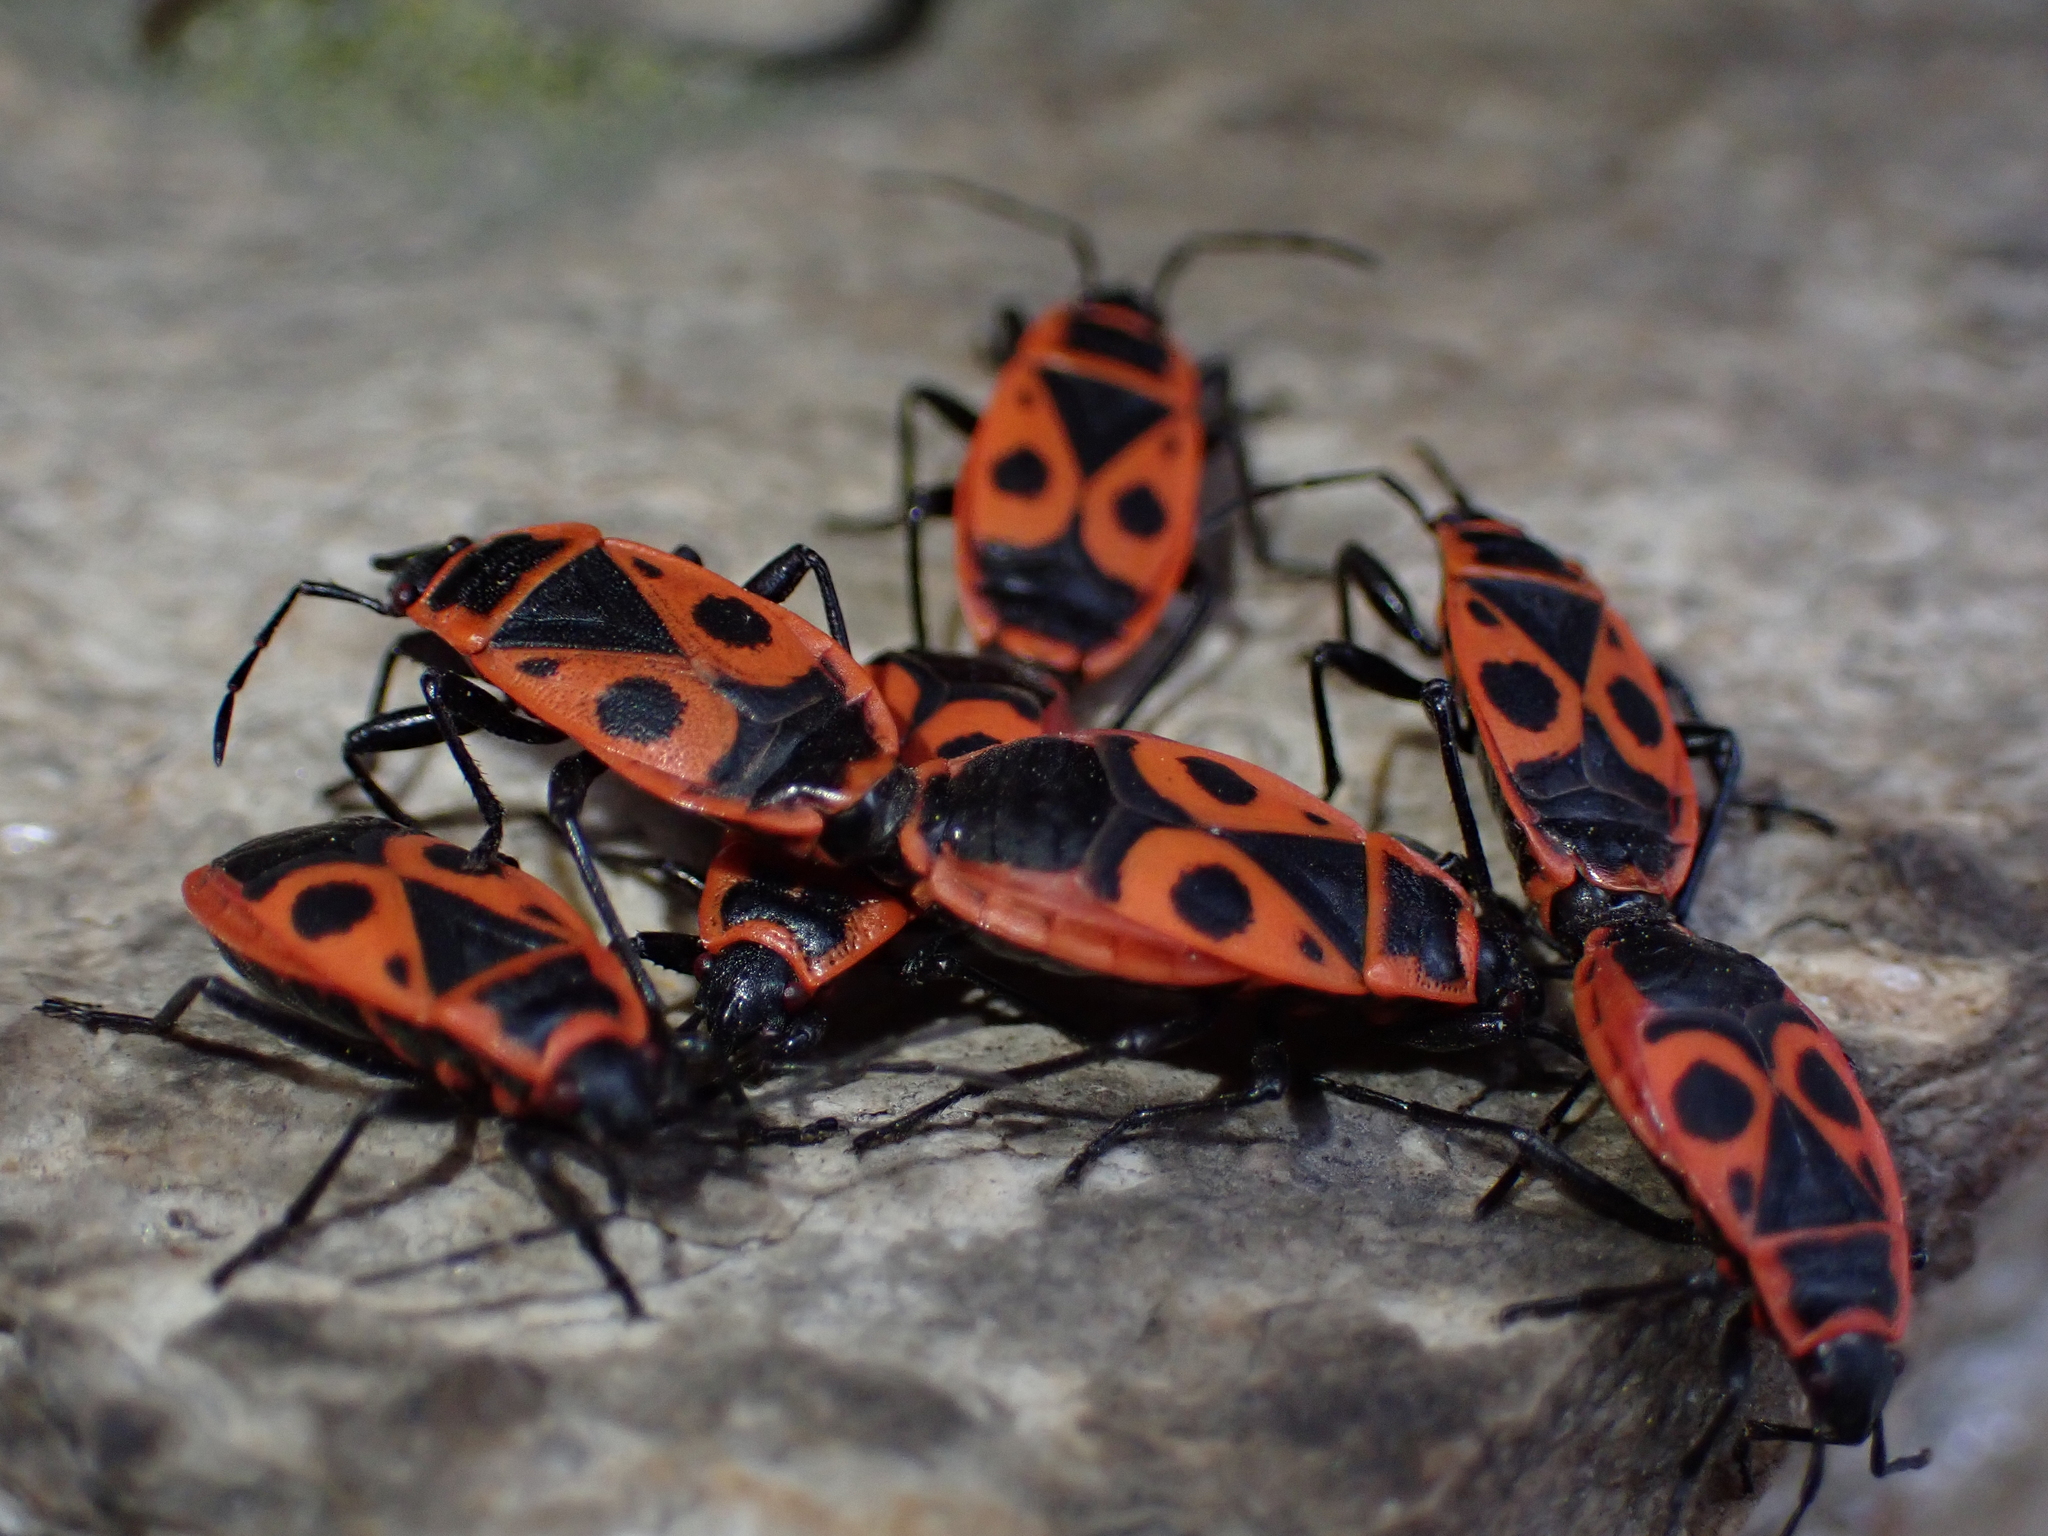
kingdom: Animalia
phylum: Arthropoda
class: Insecta
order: Hemiptera
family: Pyrrhocoridae
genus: Pyrrhocoris
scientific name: Pyrrhocoris apterus
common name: Firebug
